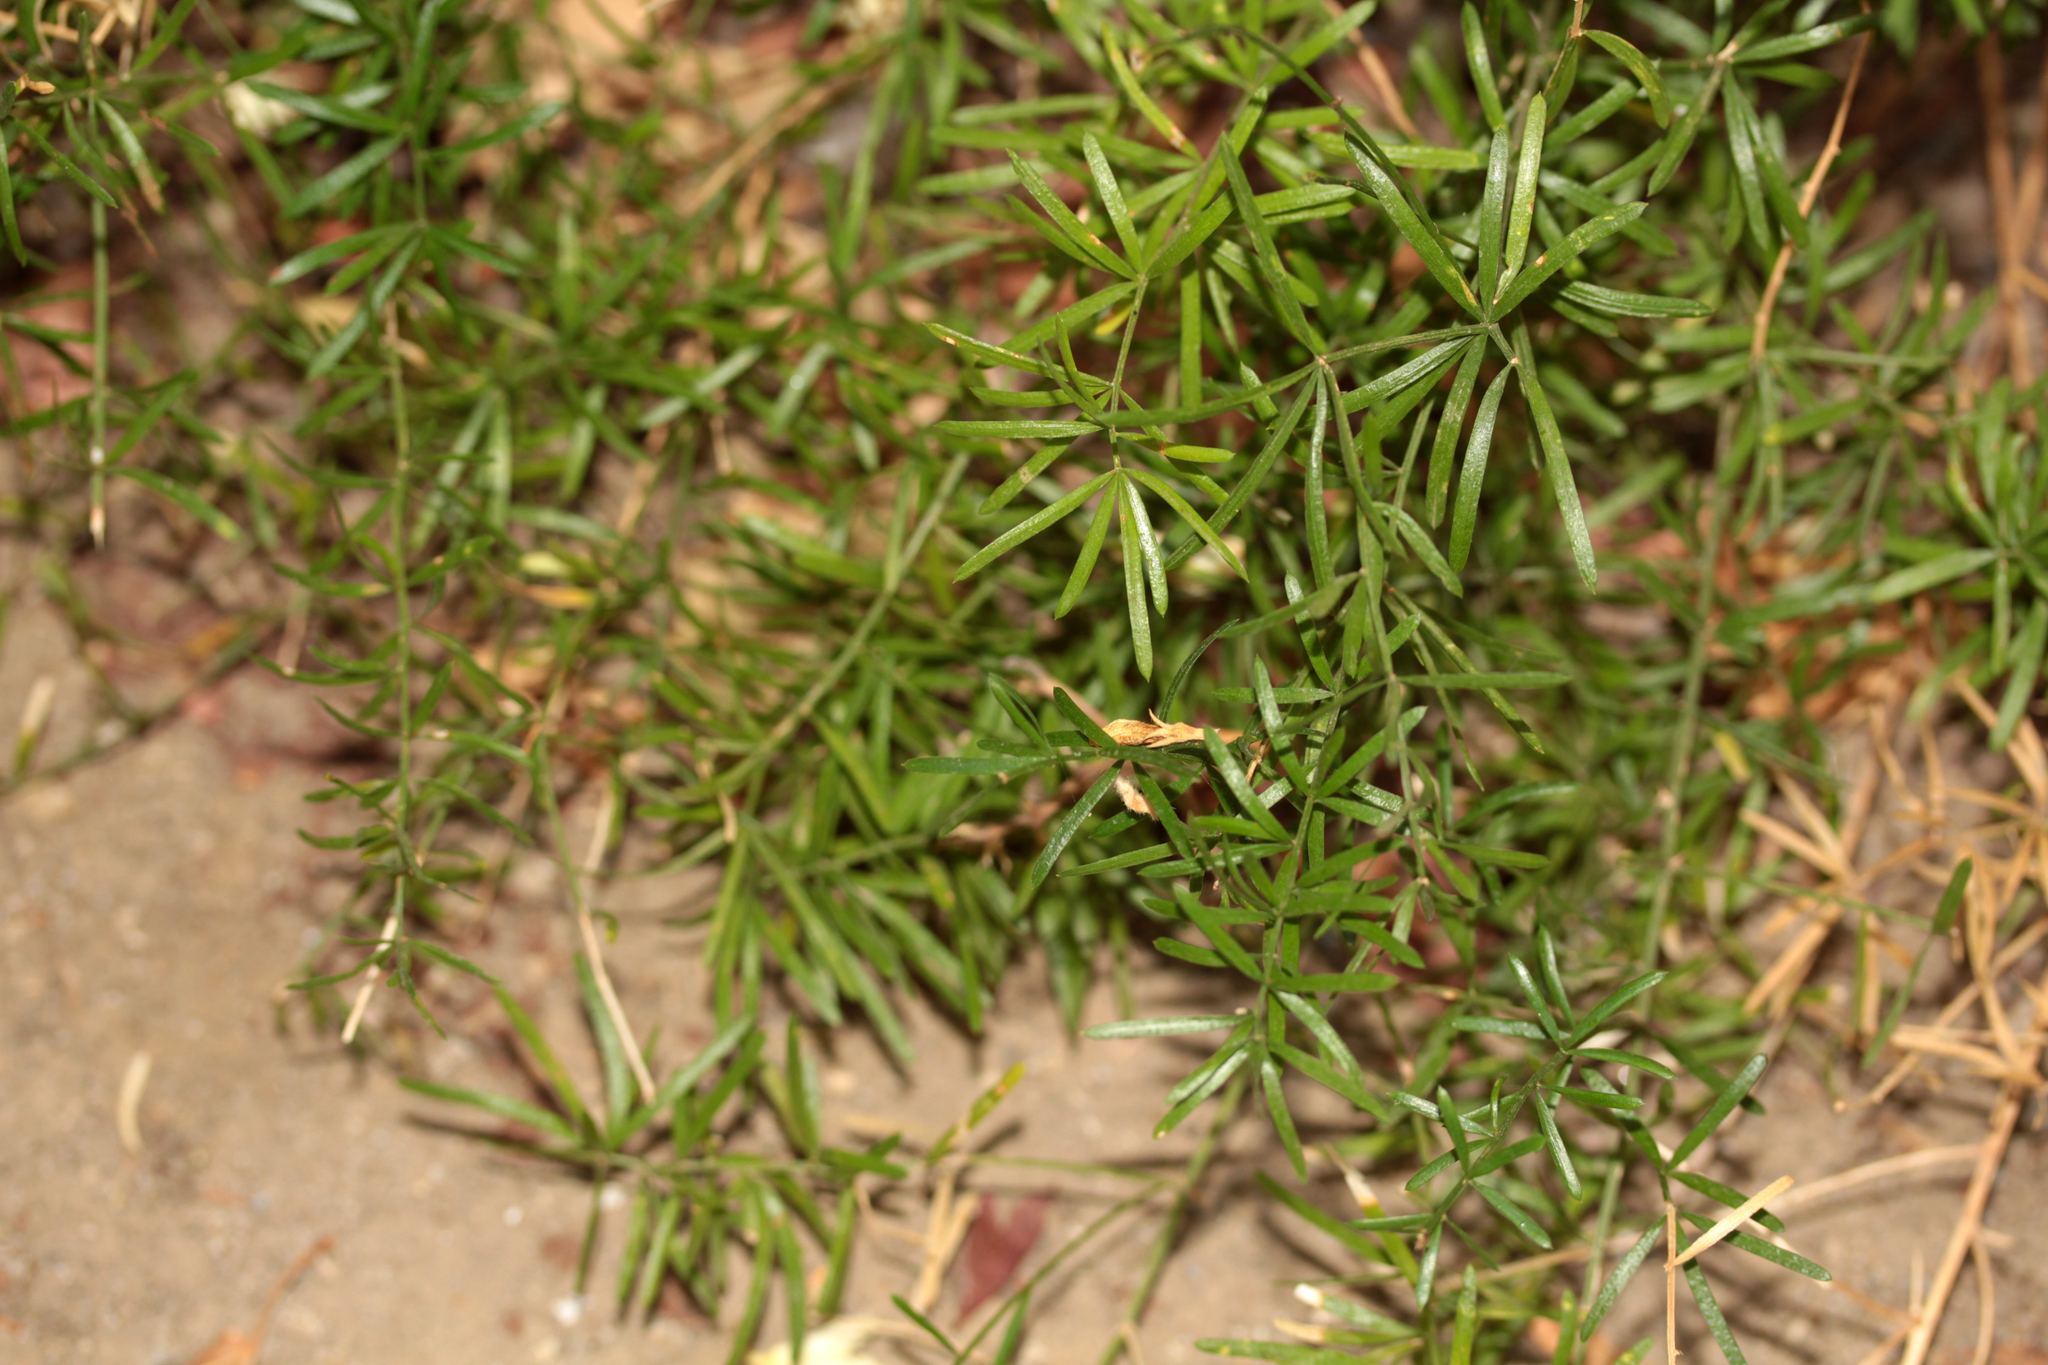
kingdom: Plantae
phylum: Tracheophyta
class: Liliopsida
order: Asparagales
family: Asparagaceae
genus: Asparagus
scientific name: Asparagus aethiopicus
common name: Sprenger's asparagus fern
